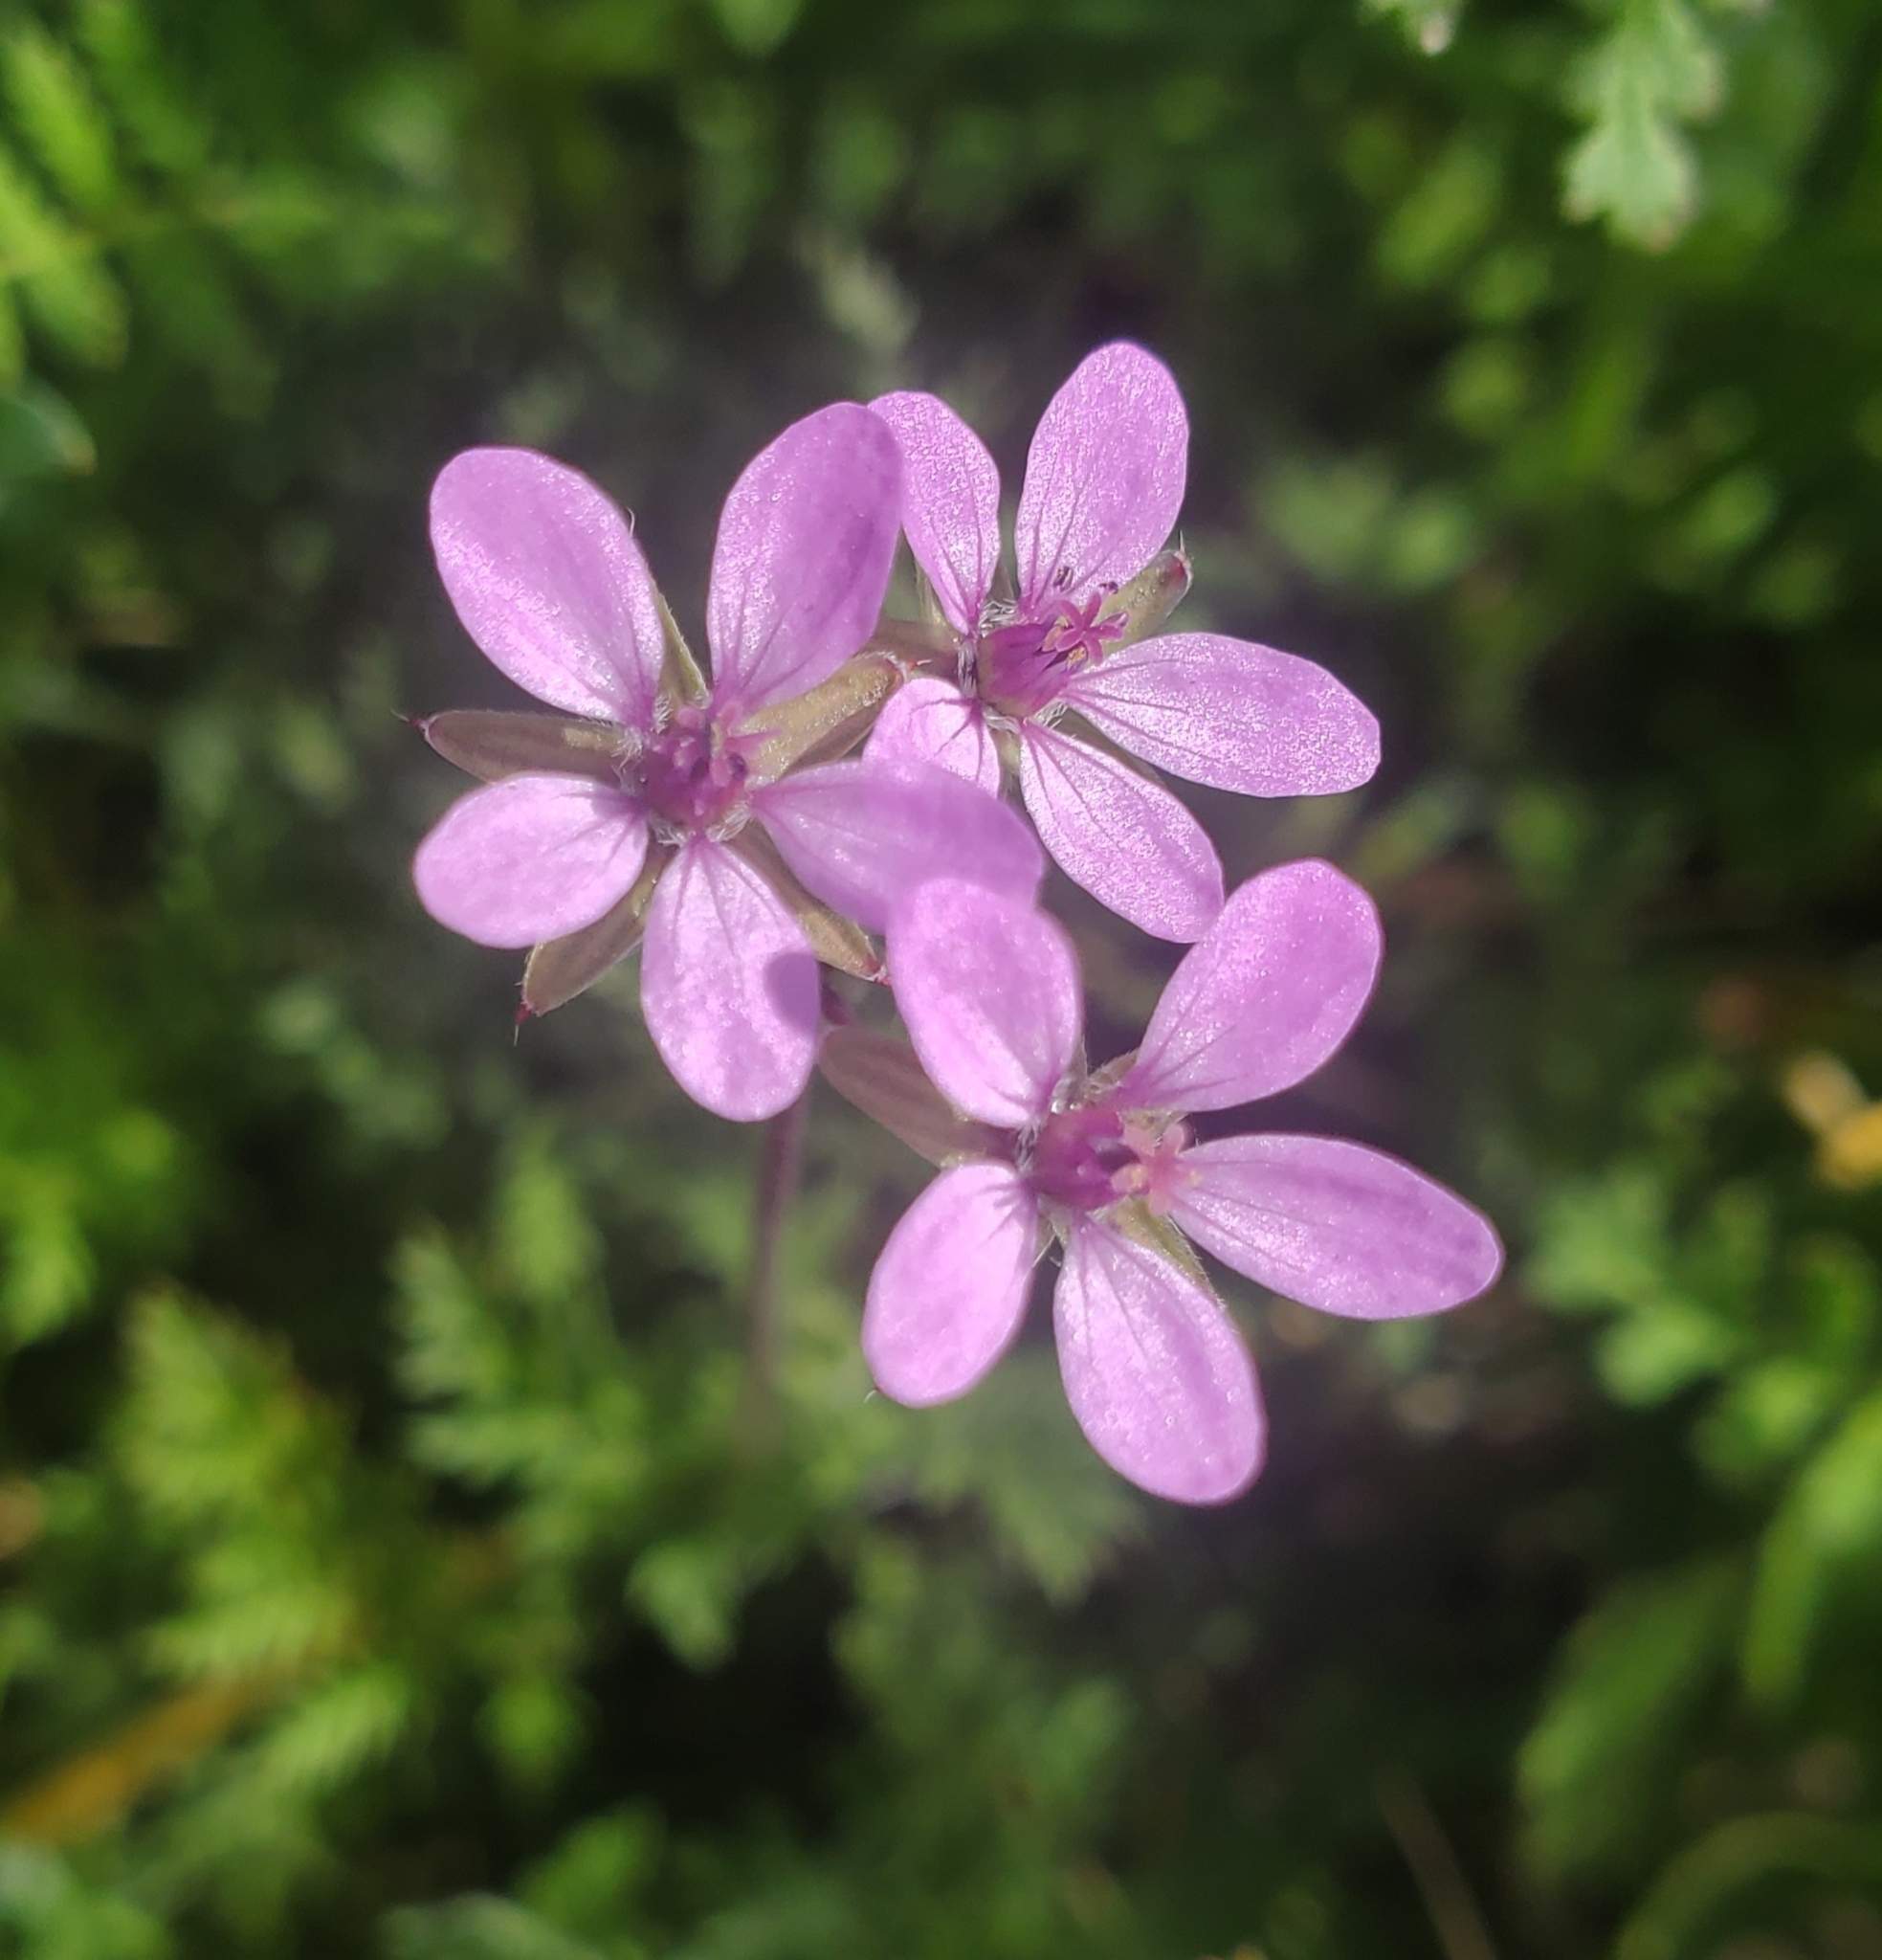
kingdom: Plantae
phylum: Tracheophyta
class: Magnoliopsida
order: Geraniales
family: Geraniaceae
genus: Erodium
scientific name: Erodium cicutarium
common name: Common stork's-bill
